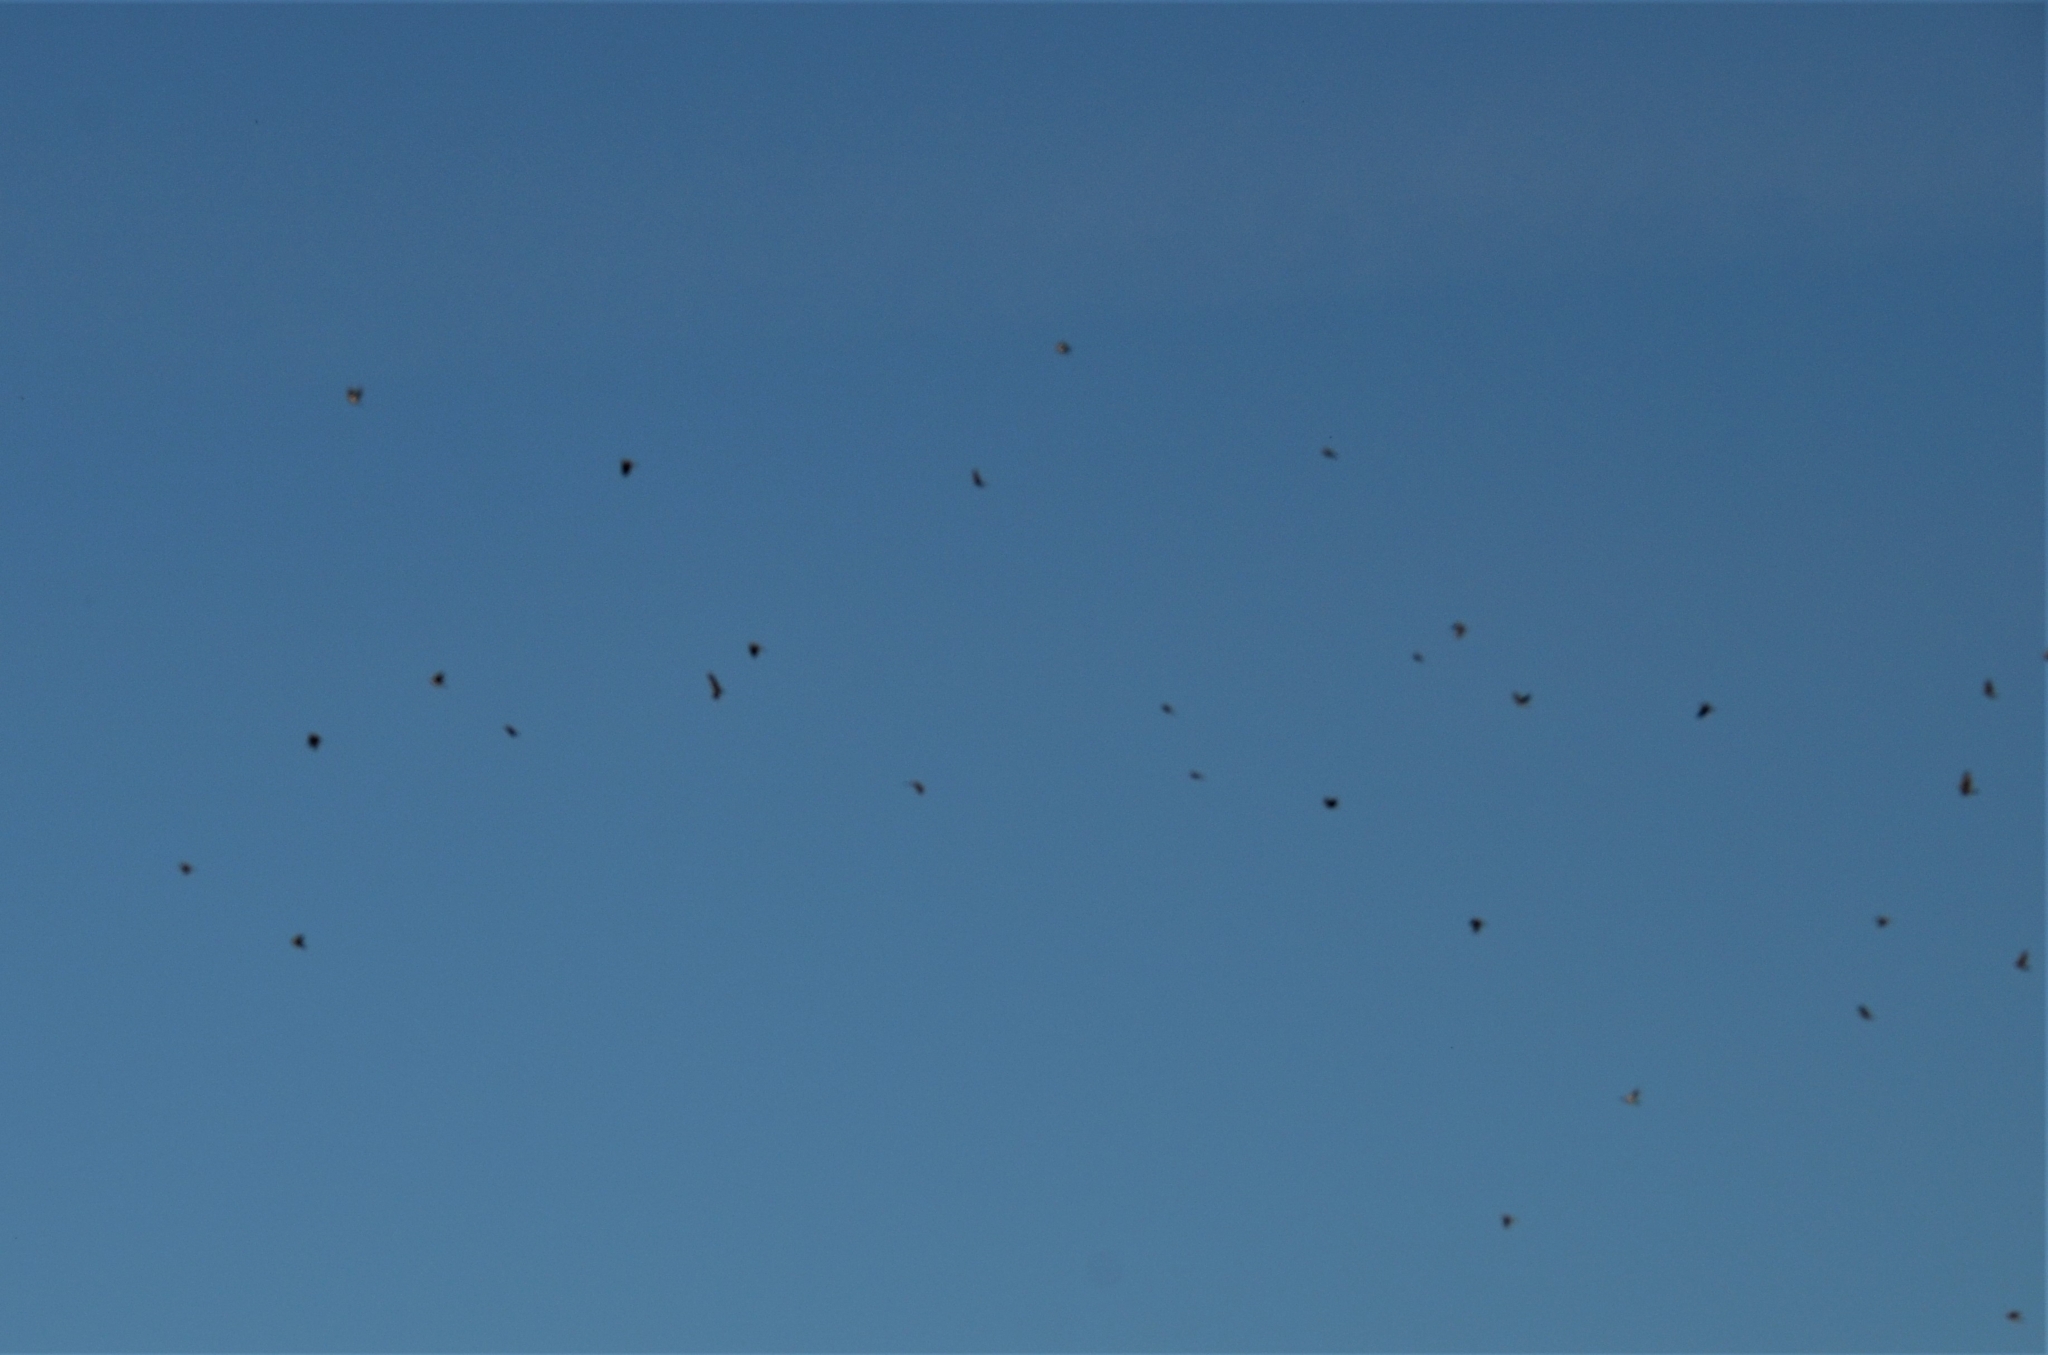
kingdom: Animalia
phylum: Chordata
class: Aves
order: Passeriformes
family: Turdidae
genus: Turdus
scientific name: Turdus pilaris
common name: Fieldfare
